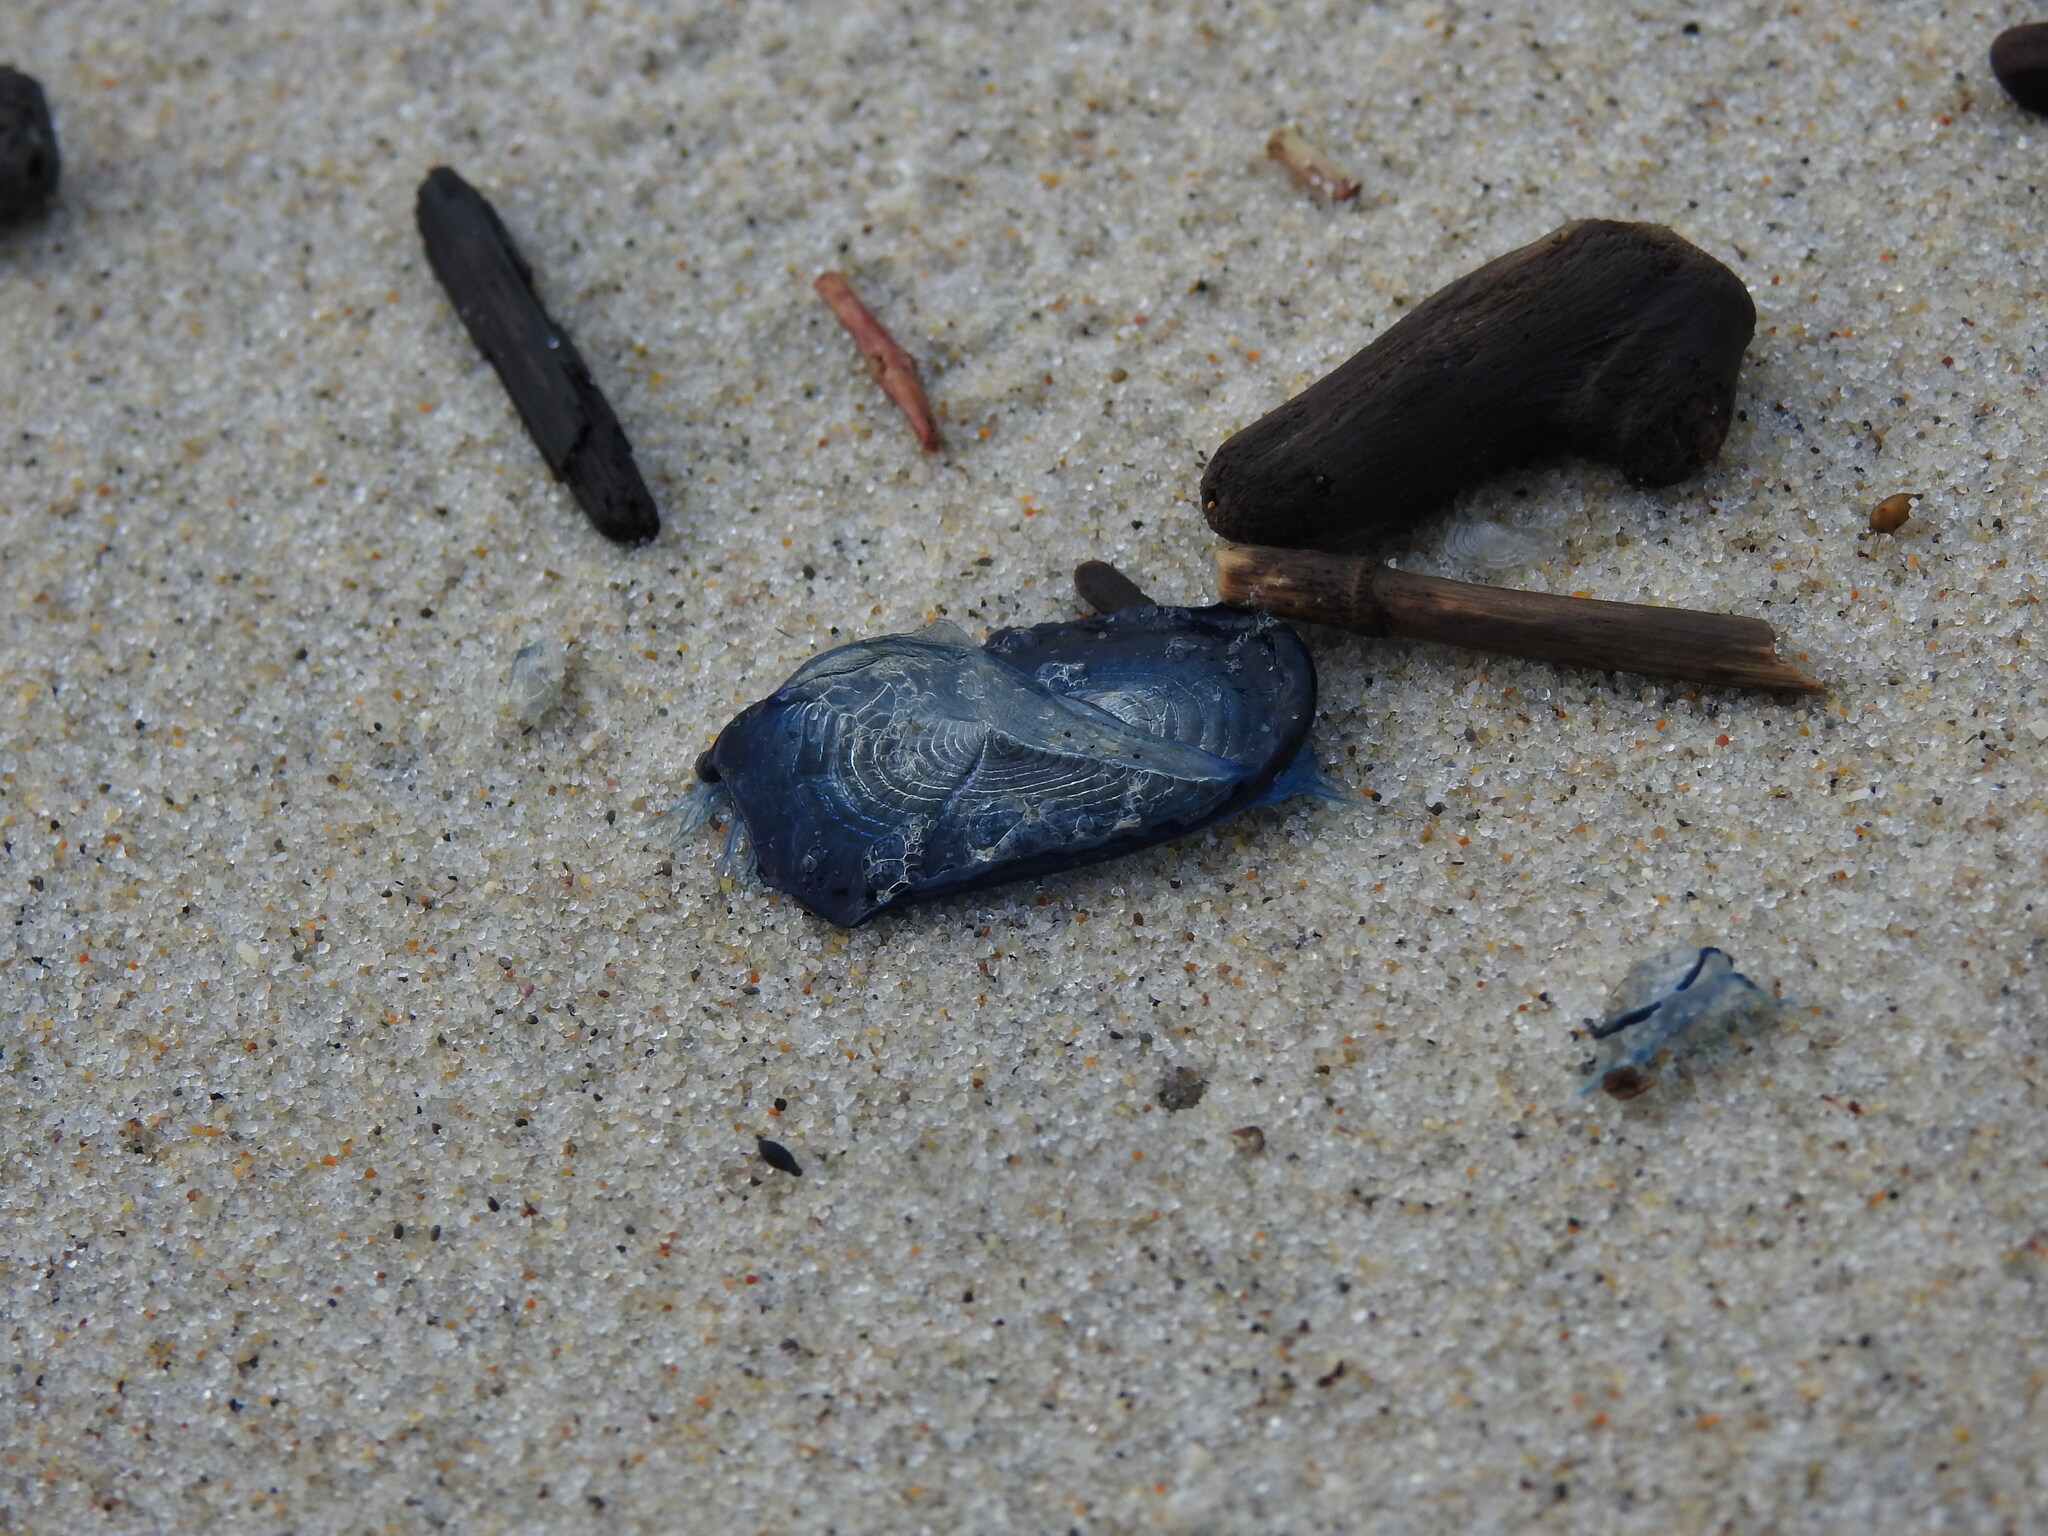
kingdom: Animalia
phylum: Cnidaria
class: Hydrozoa
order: Anthoathecata
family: Porpitidae
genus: Velella
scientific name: Velella velella
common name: By-the-wind-sailor
